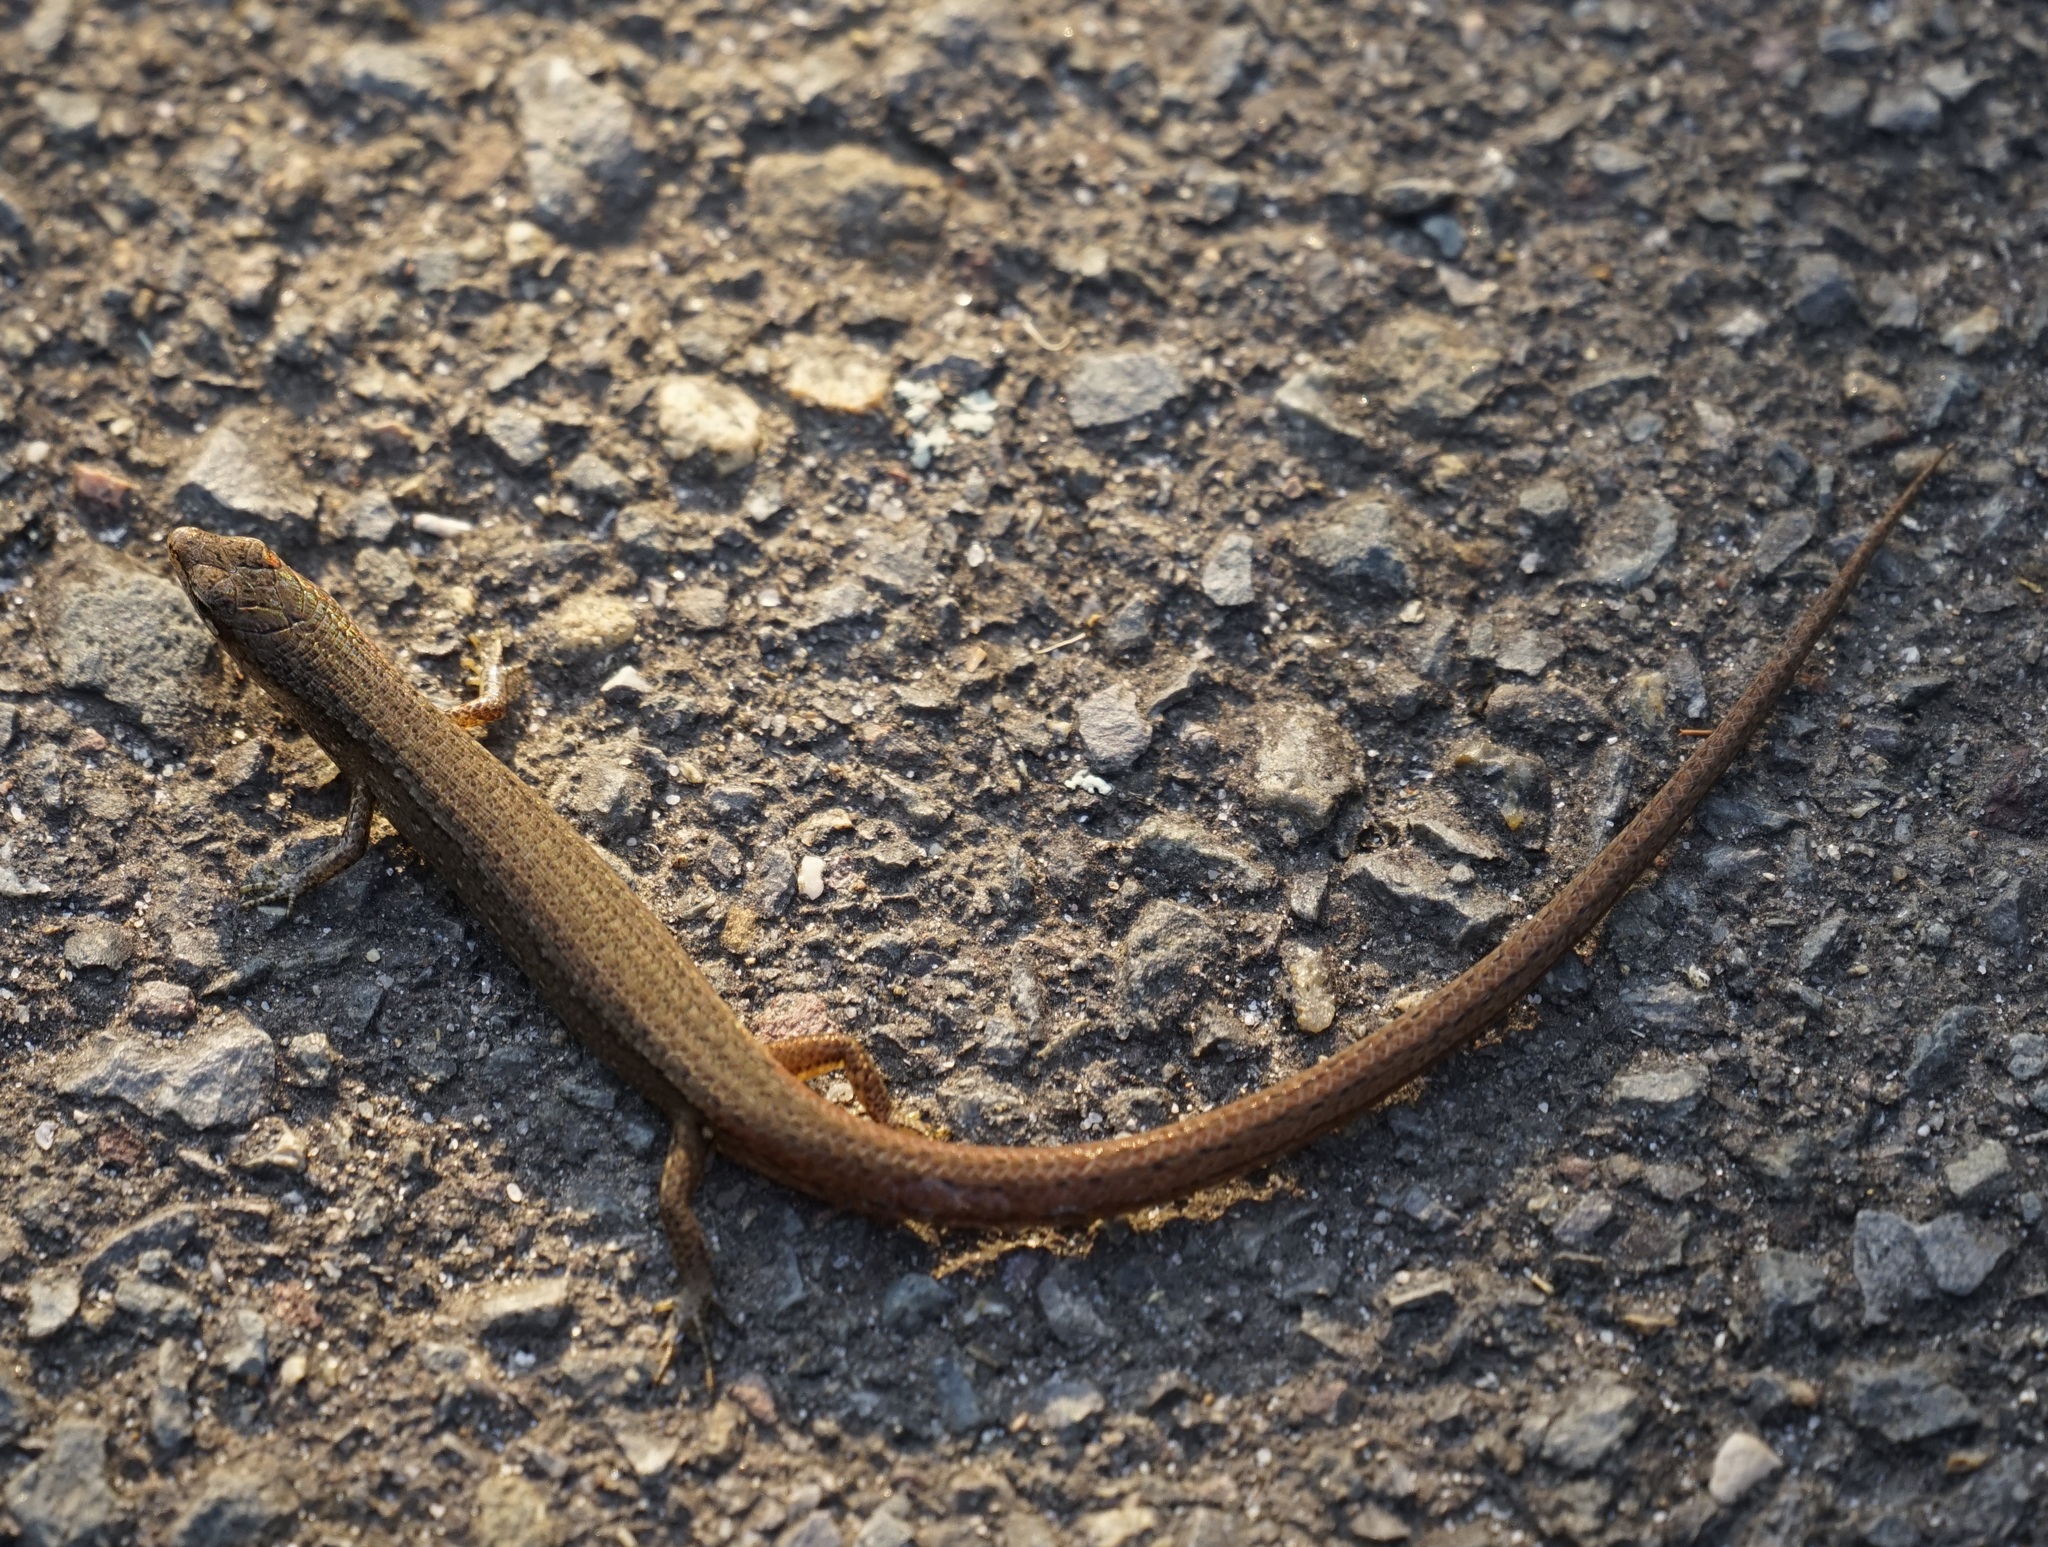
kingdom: Animalia
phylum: Chordata
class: Squamata
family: Scincidae
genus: Saproscincus
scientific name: Saproscincus mustelinus
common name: Southern weasel skink
